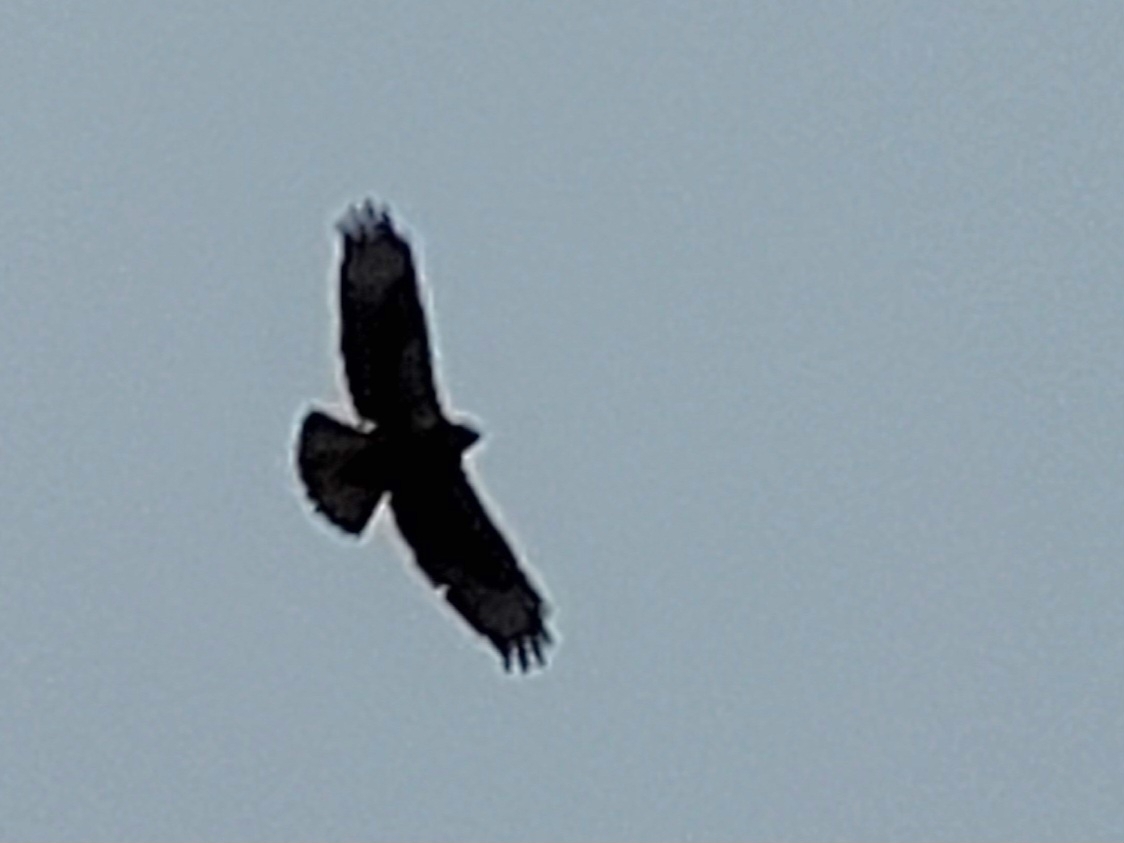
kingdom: Animalia
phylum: Chordata
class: Aves
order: Accipitriformes
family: Accipitridae
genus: Buteo
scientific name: Buteo buteo
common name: Common buzzard
